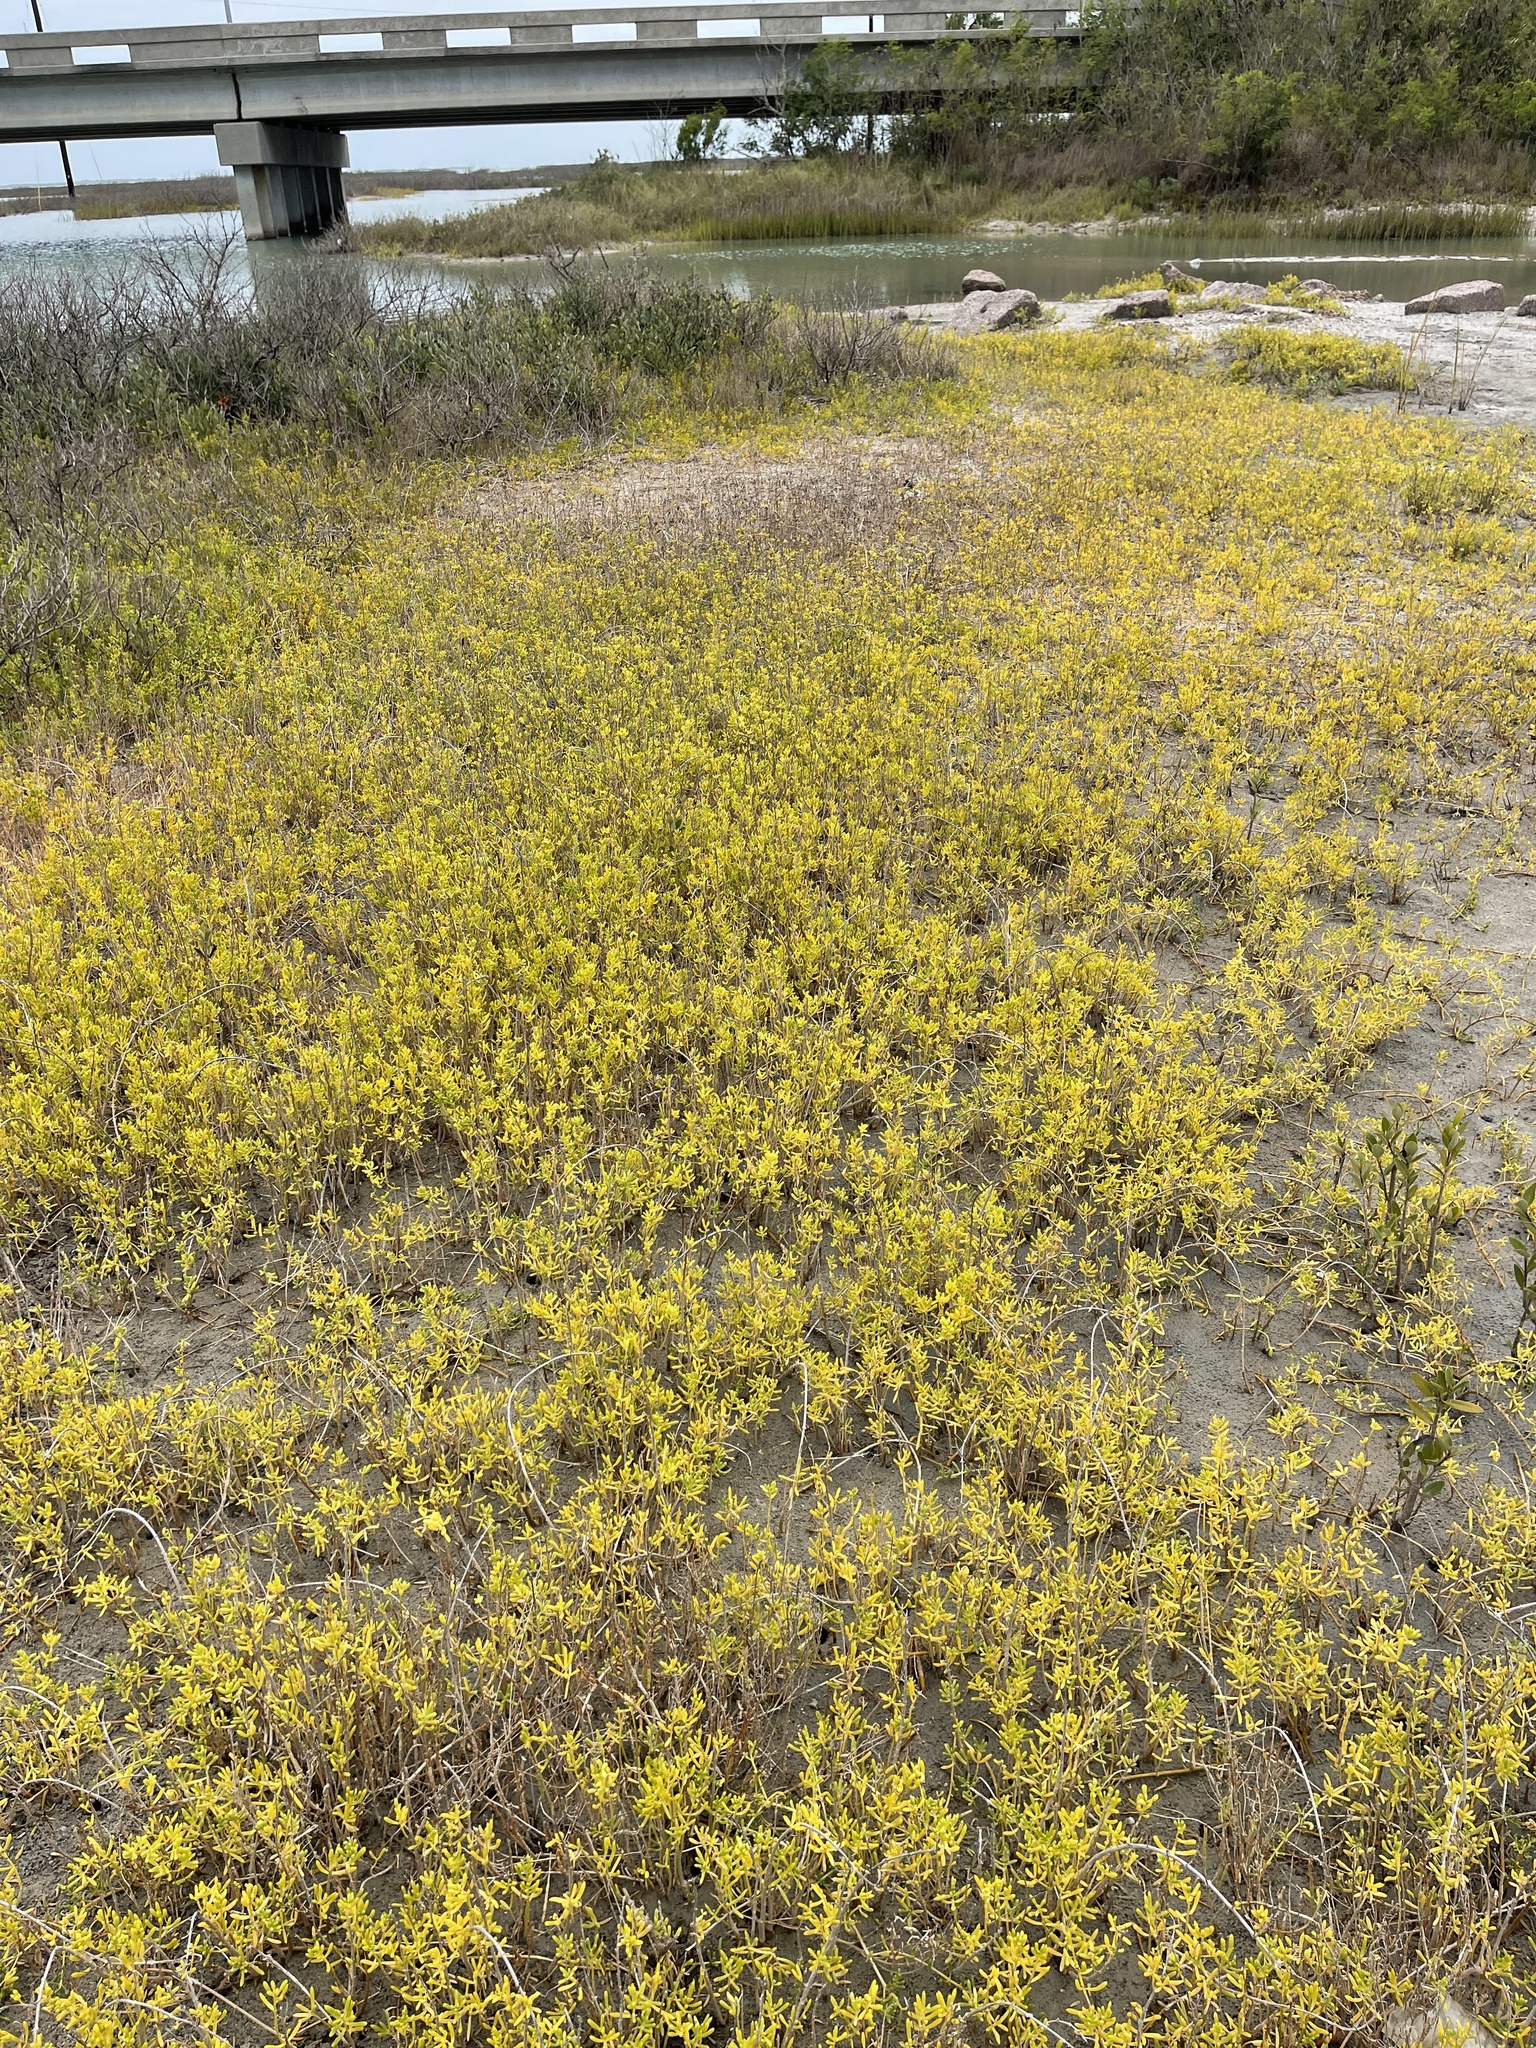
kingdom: Plantae
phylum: Tracheophyta
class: Magnoliopsida
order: Brassicales
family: Bataceae
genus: Batis
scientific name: Batis maritima
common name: Turtleweed
